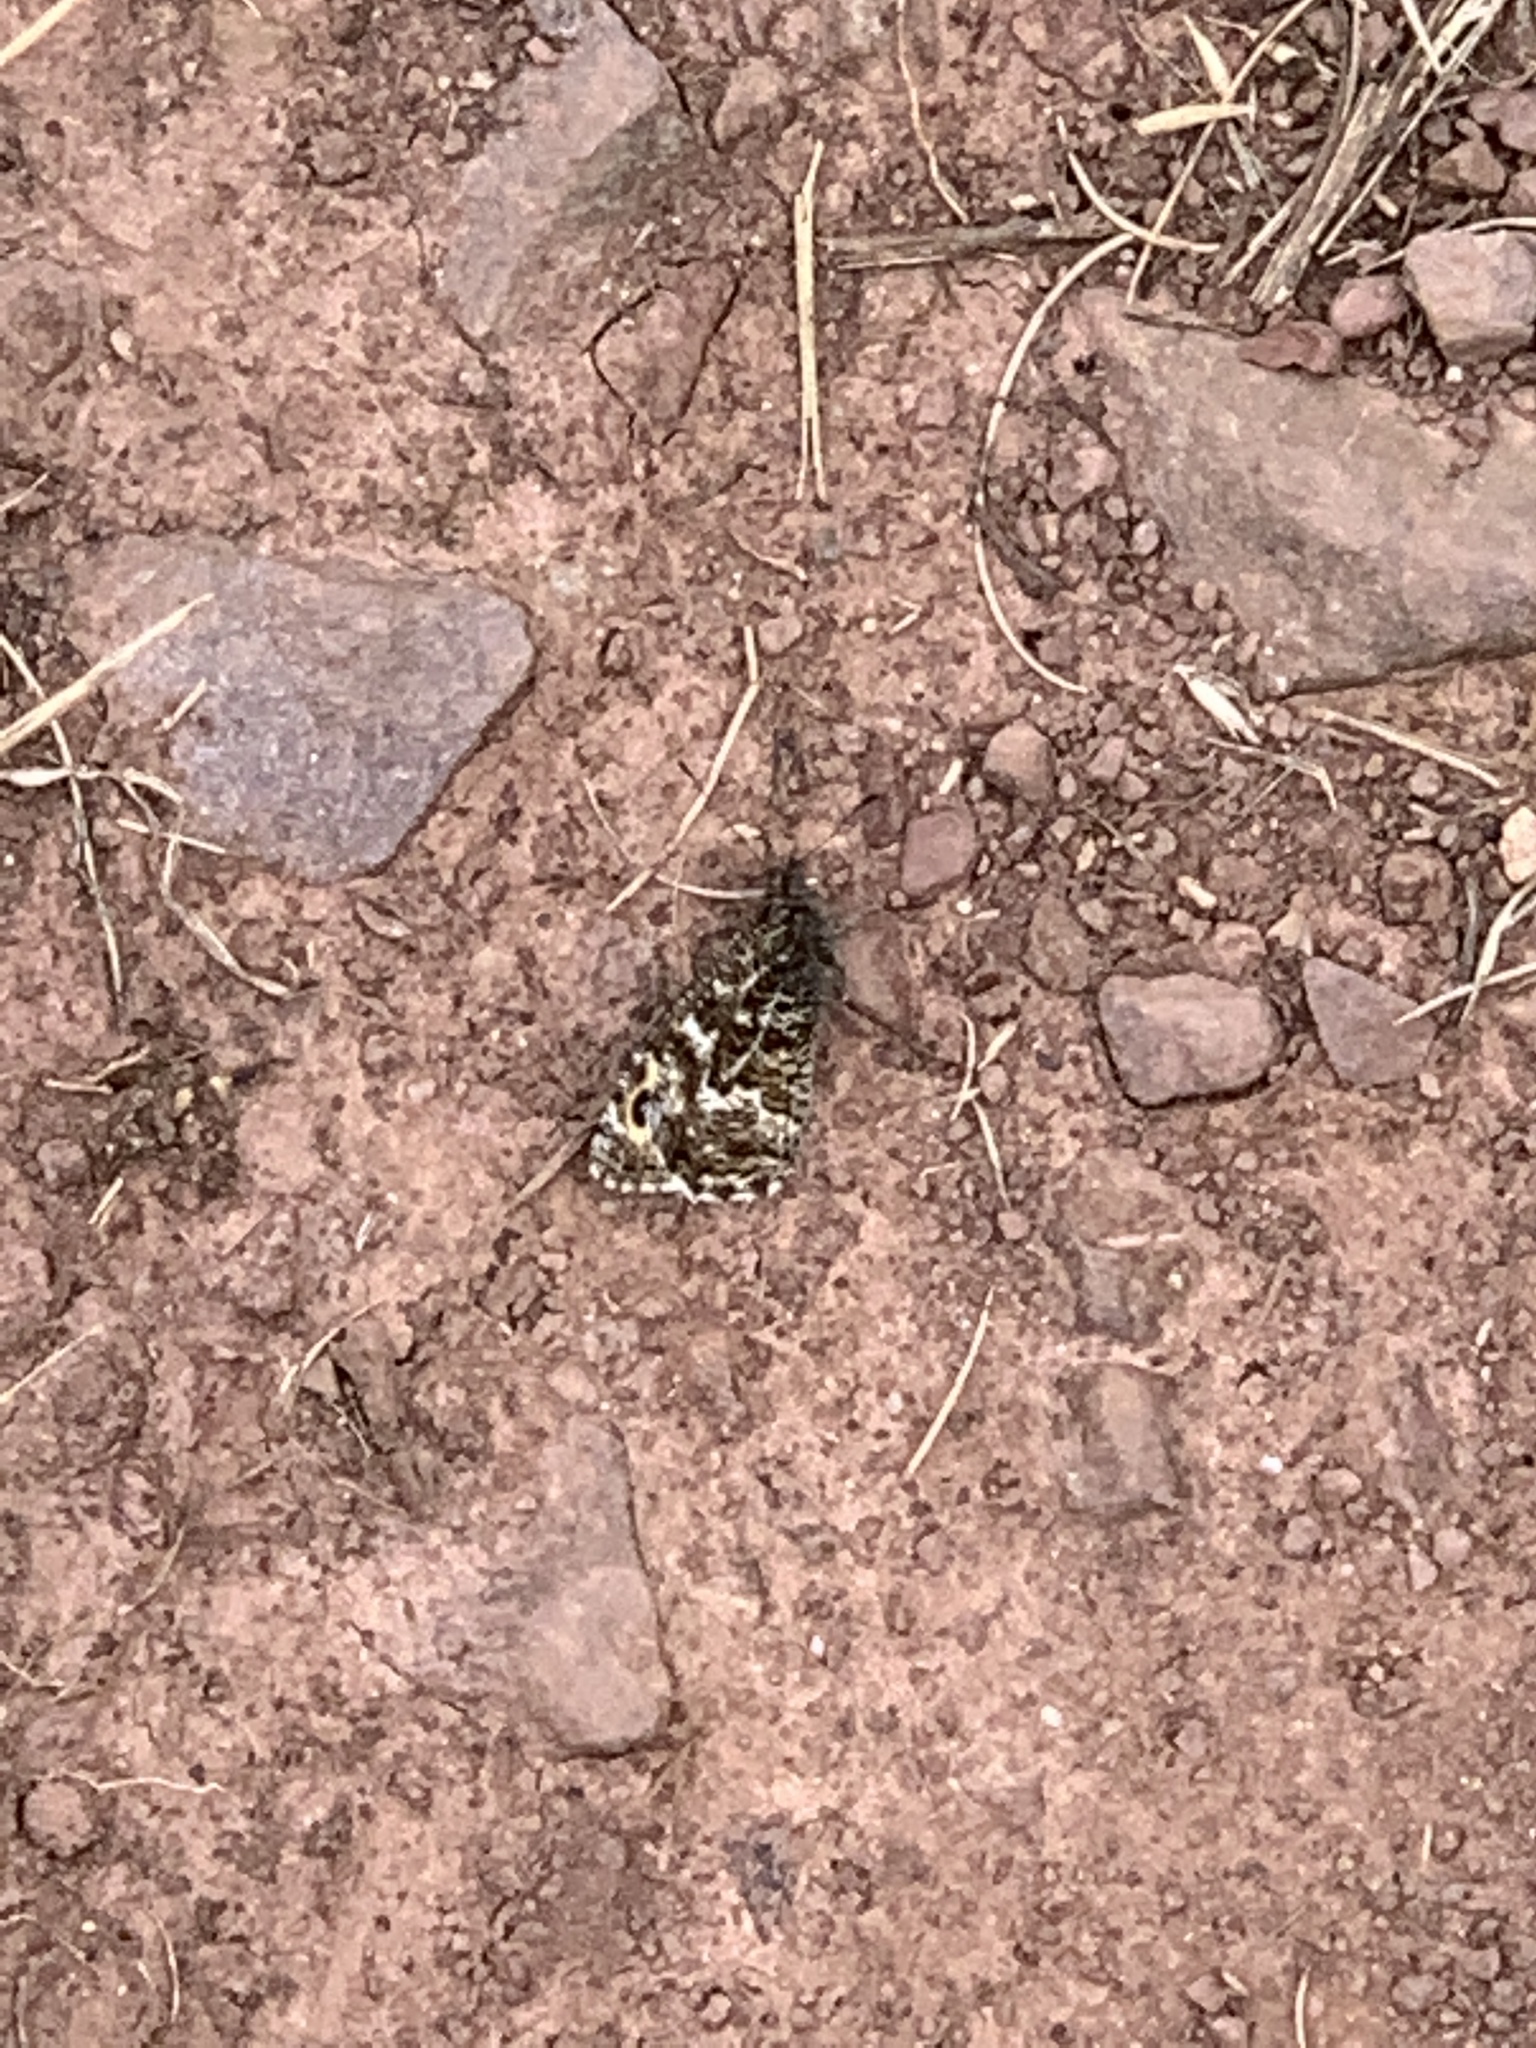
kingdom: Animalia
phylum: Arthropoda
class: Insecta
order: Lepidoptera
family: Nymphalidae
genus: Hipparchia
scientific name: Hipparchia semele
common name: Grayling
